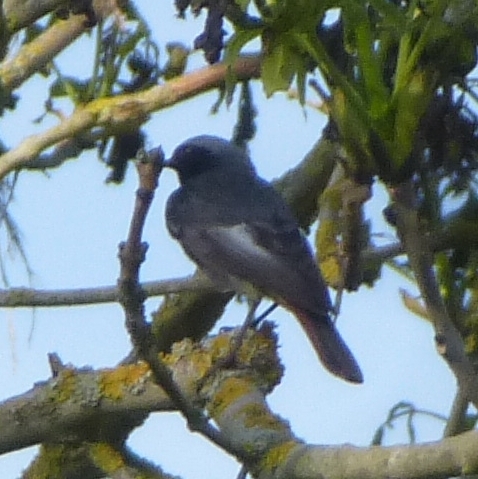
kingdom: Animalia
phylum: Chordata
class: Aves
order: Passeriformes
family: Muscicapidae
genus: Phoenicurus
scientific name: Phoenicurus ochruros
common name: Black redstart
